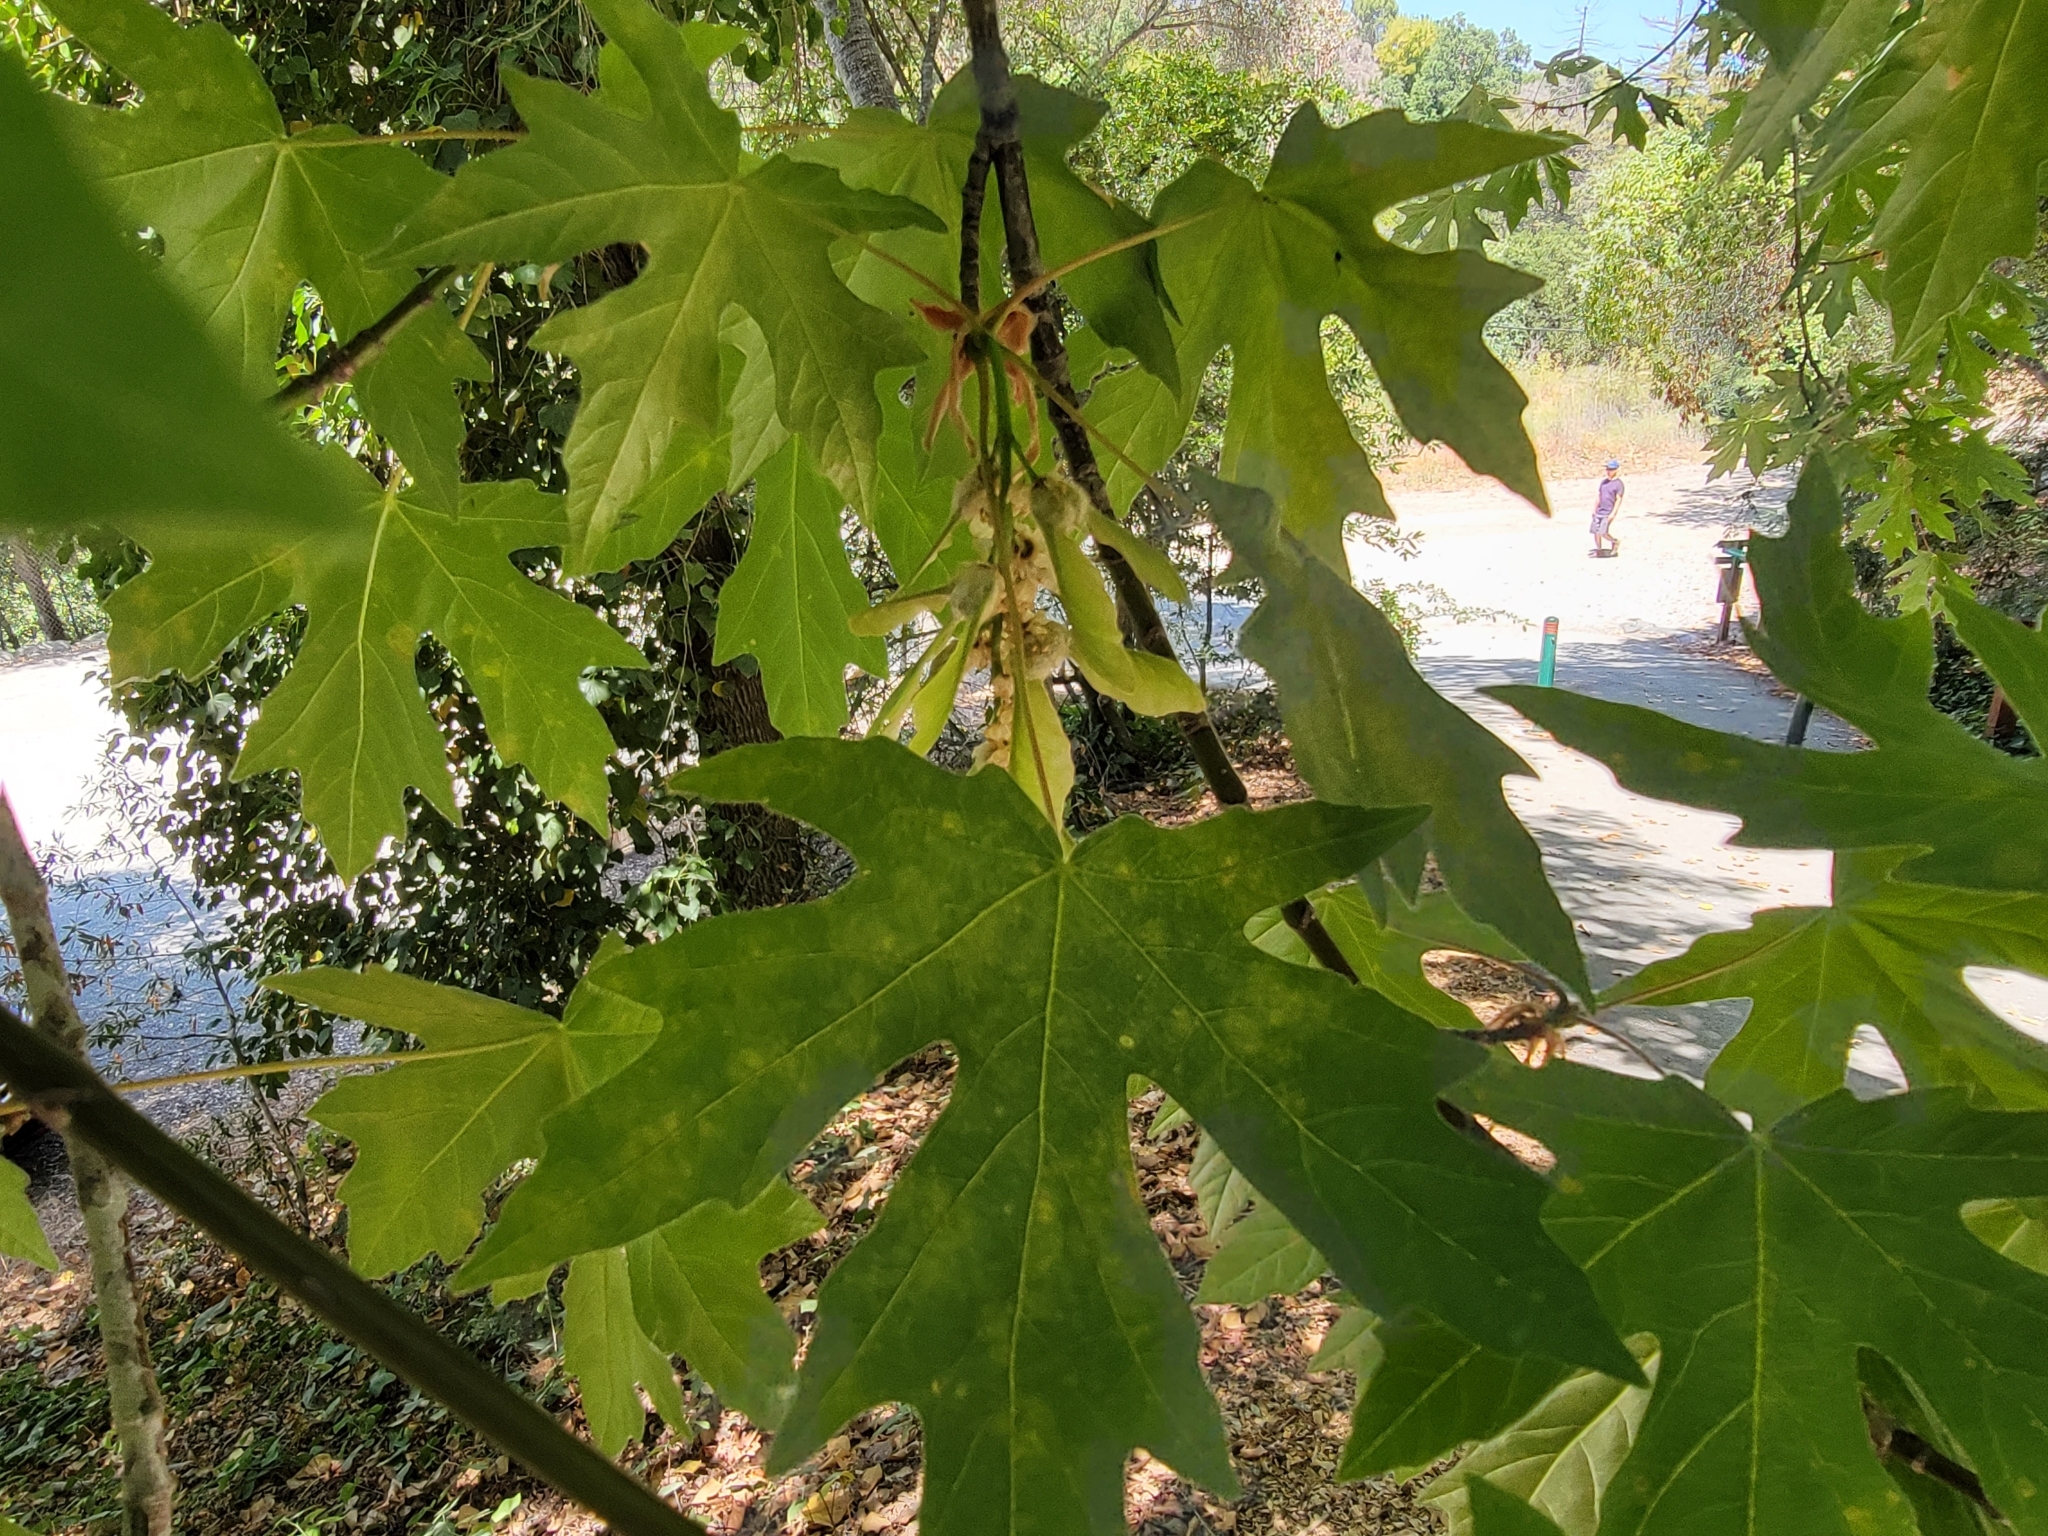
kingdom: Plantae
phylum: Tracheophyta
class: Magnoliopsida
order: Sapindales
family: Sapindaceae
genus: Acer
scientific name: Acer macrophyllum
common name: Oregon maple
